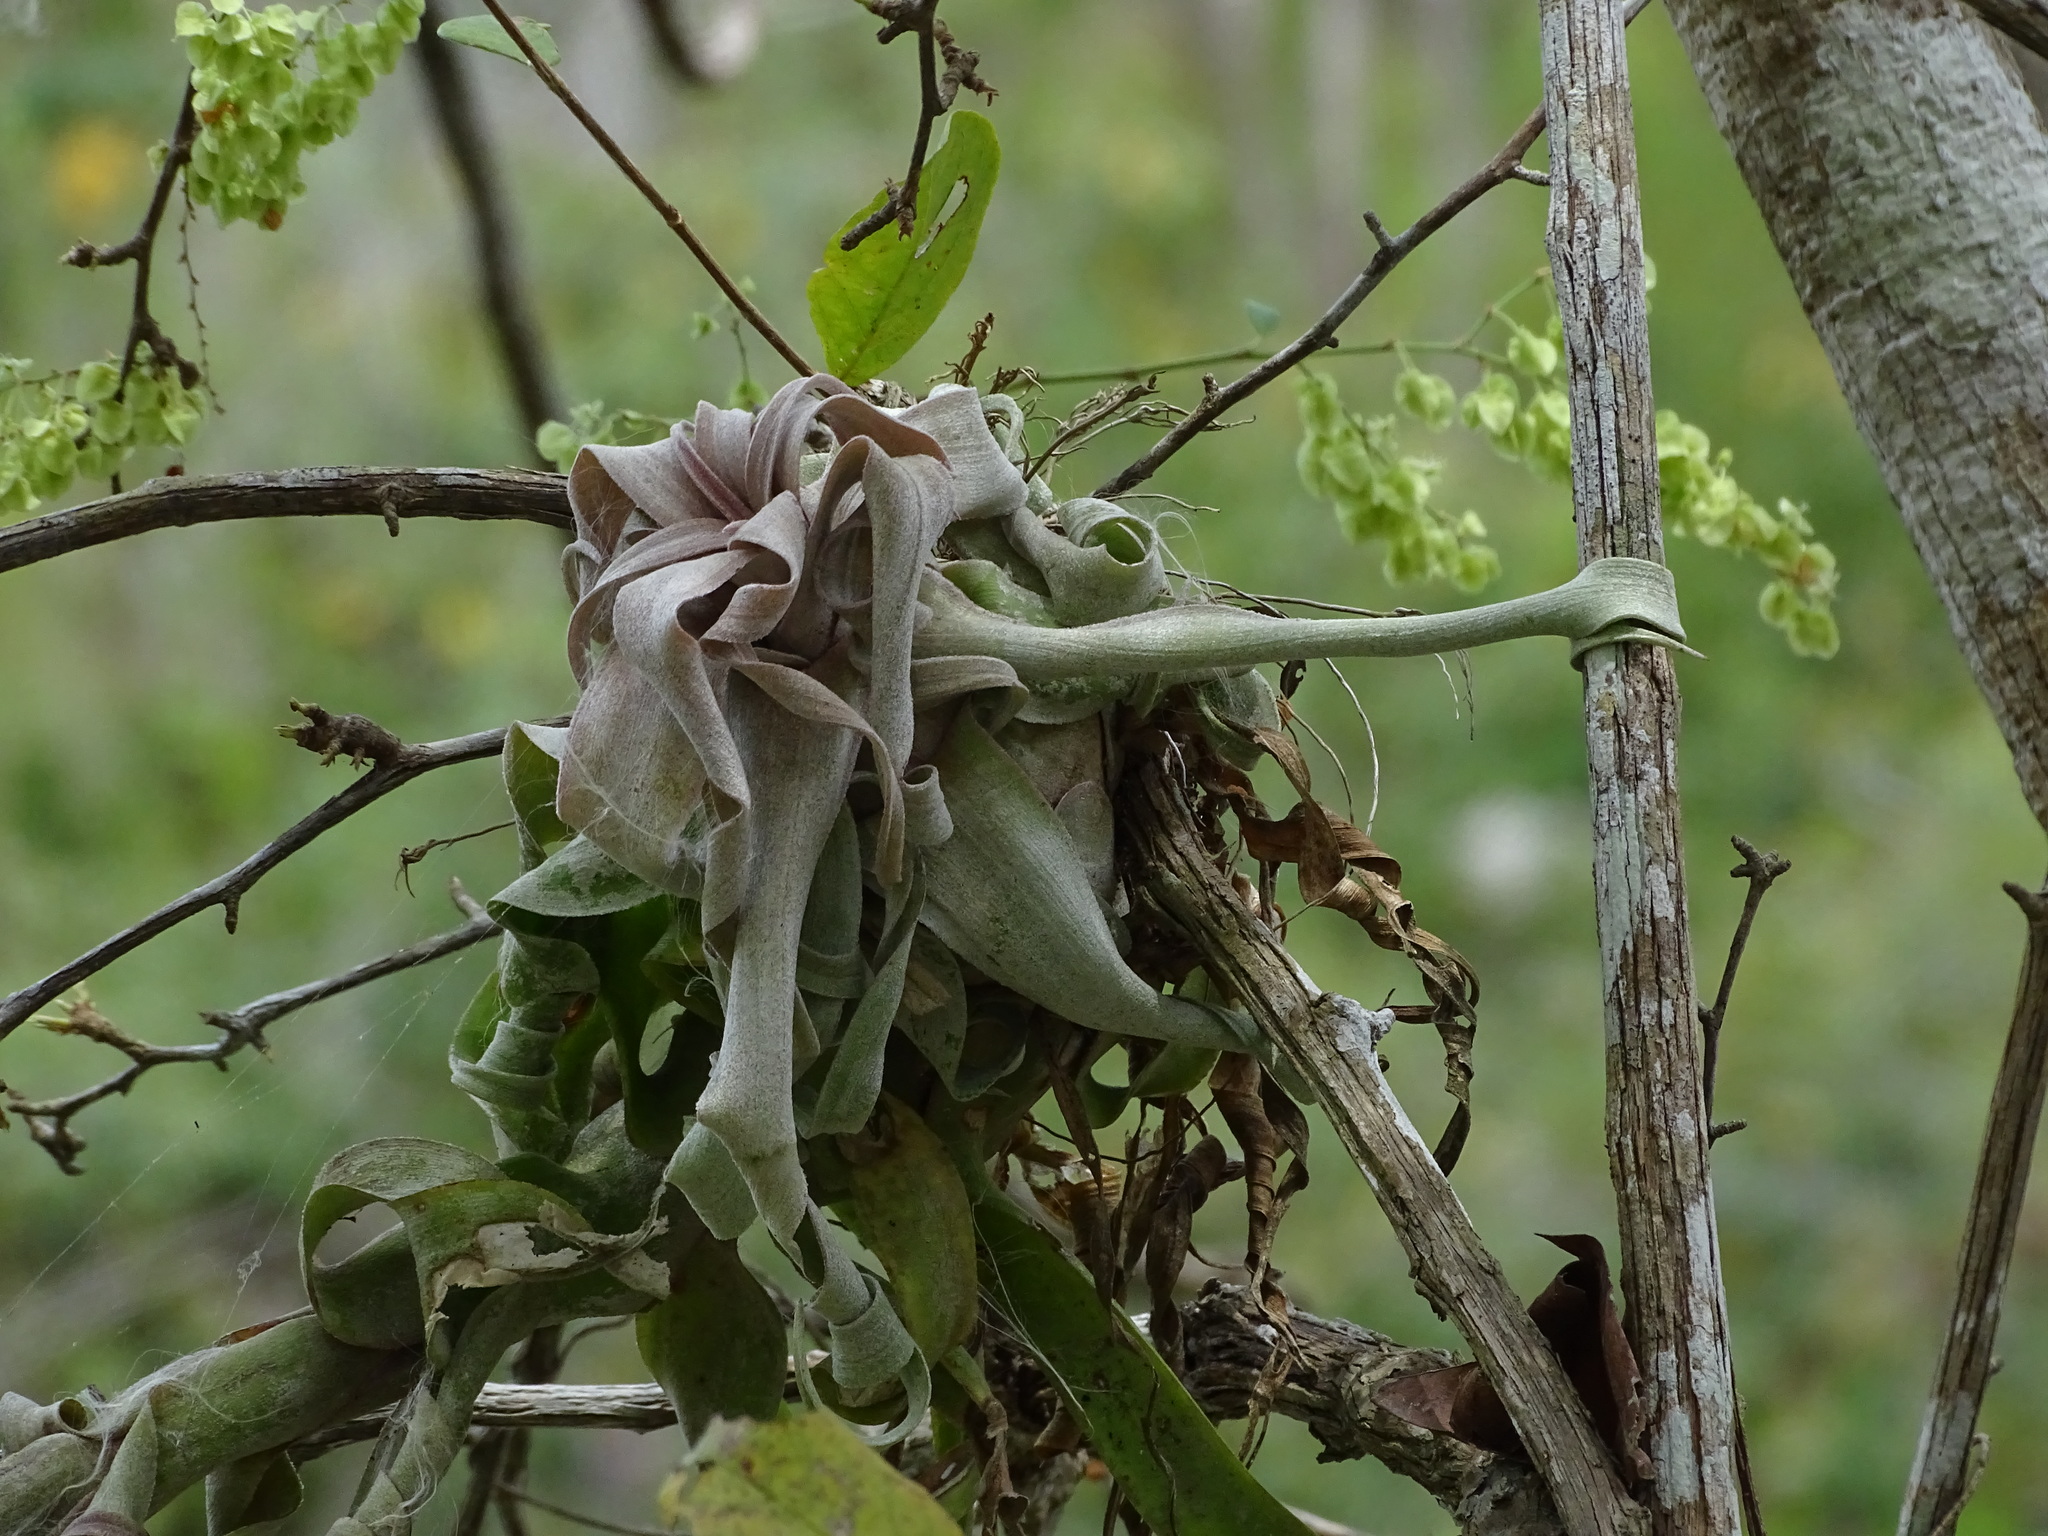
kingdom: Plantae
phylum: Tracheophyta
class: Liliopsida
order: Poales
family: Bromeliaceae
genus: Tillandsia
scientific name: Tillandsia streptophylla
